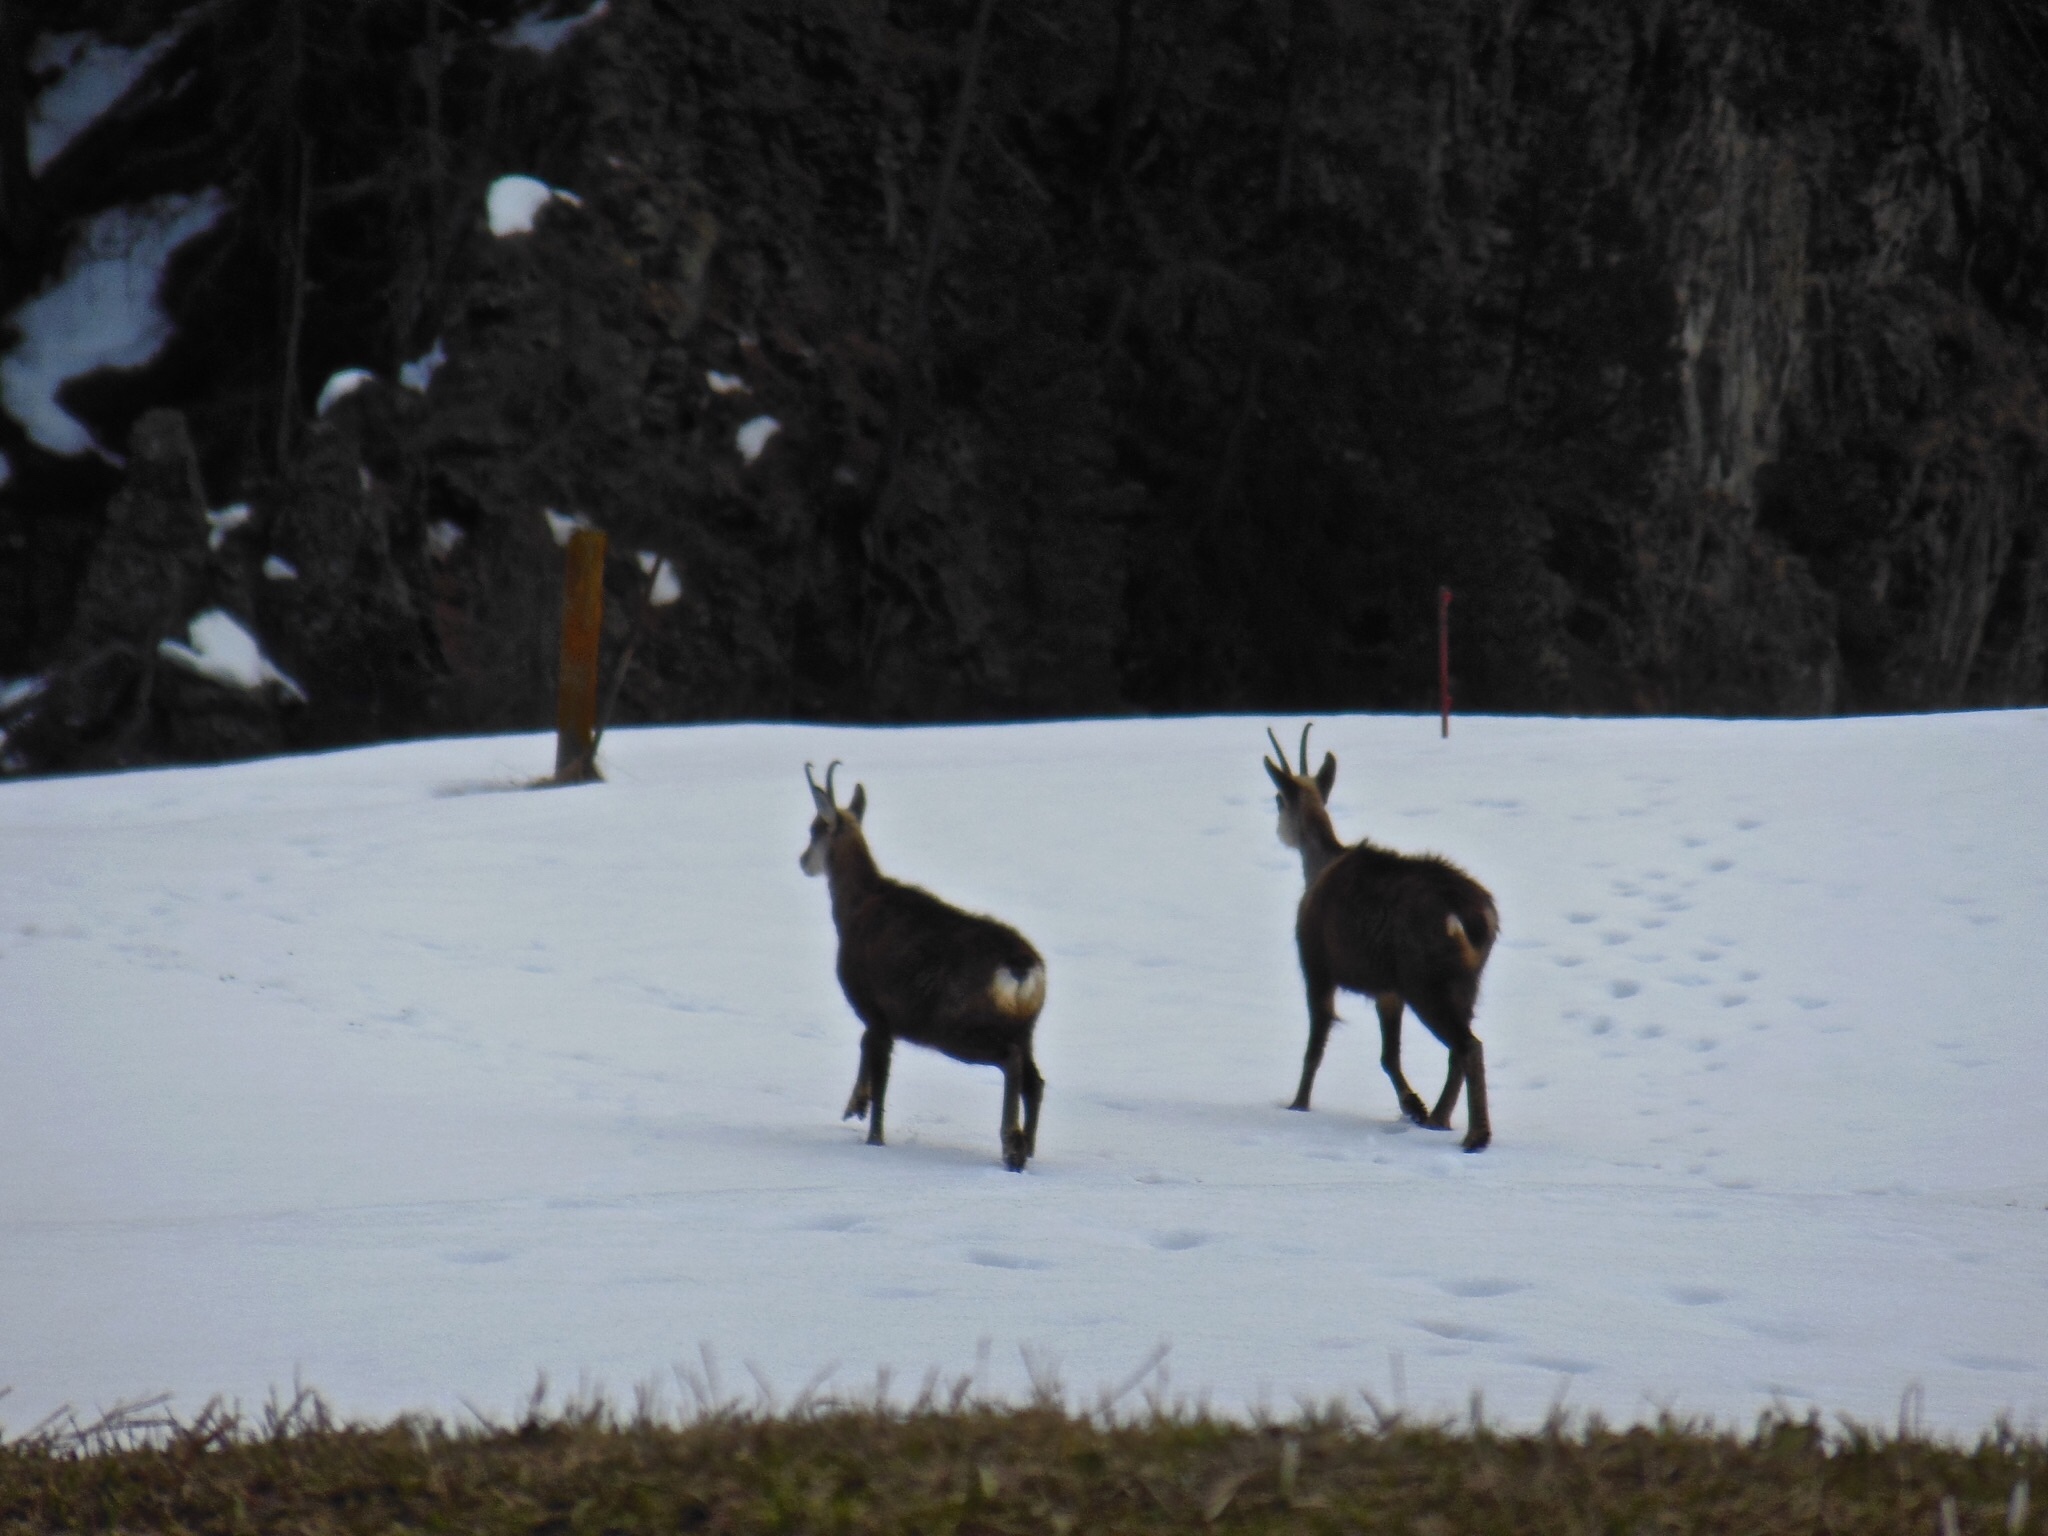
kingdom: Animalia
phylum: Chordata
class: Mammalia
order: Artiodactyla
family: Bovidae
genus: Rupicapra
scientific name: Rupicapra rupicapra
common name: Chamois
